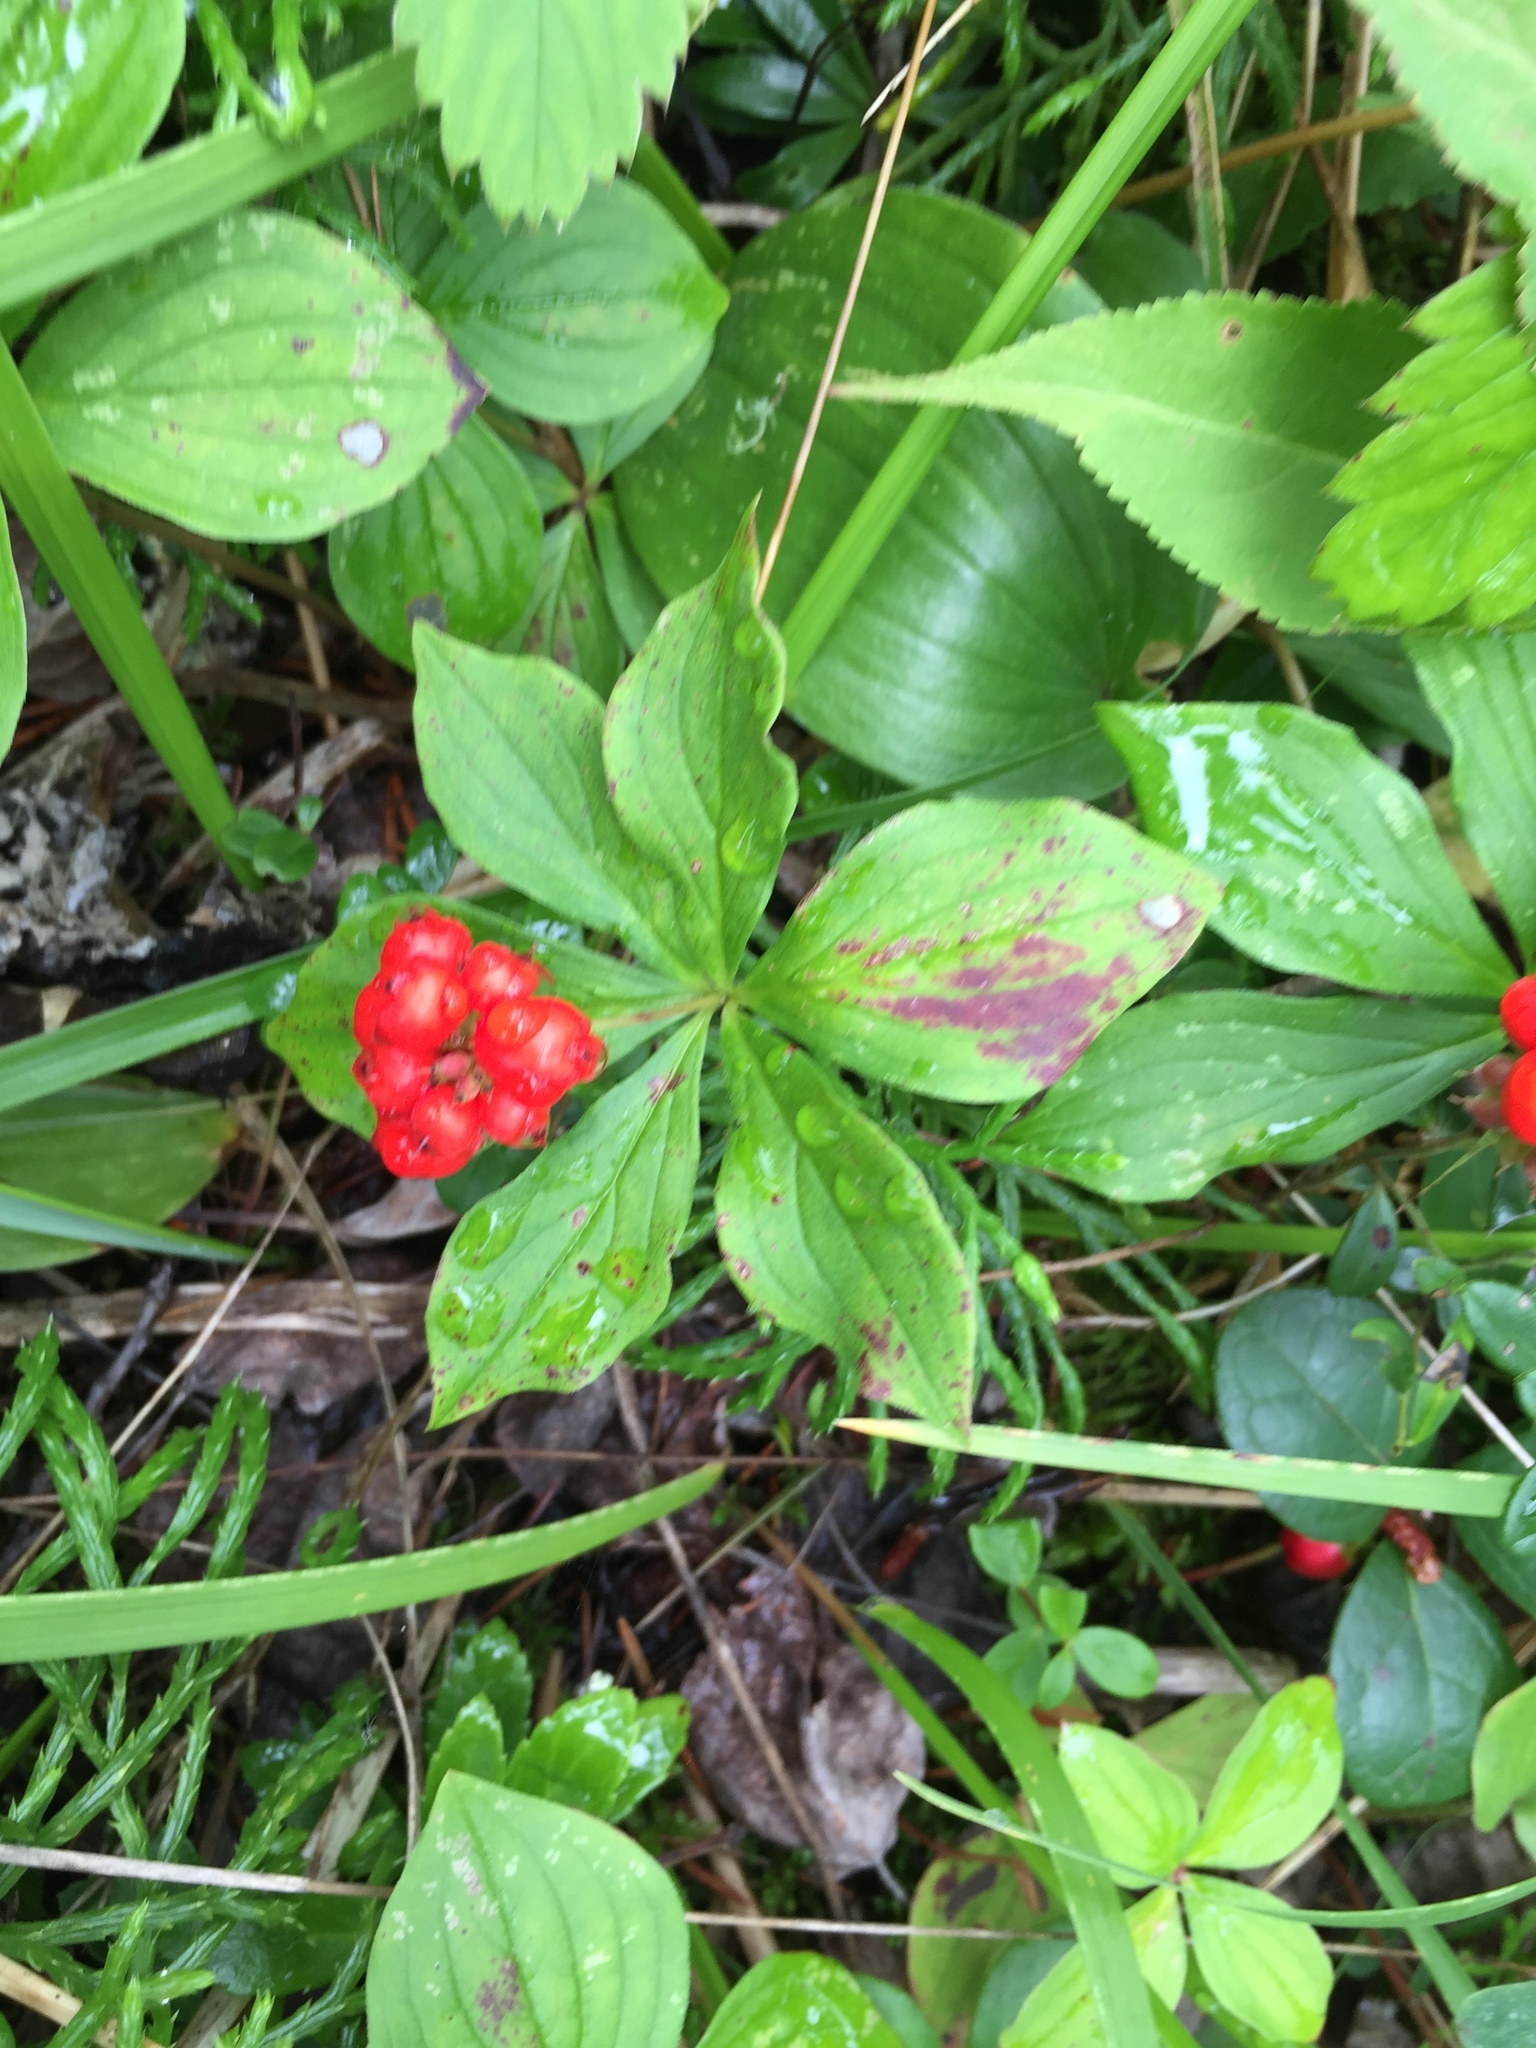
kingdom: Plantae
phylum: Tracheophyta
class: Magnoliopsida
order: Cornales
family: Cornaceae
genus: Cornus
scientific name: Cornus canadensis
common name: Creeping dogwood
